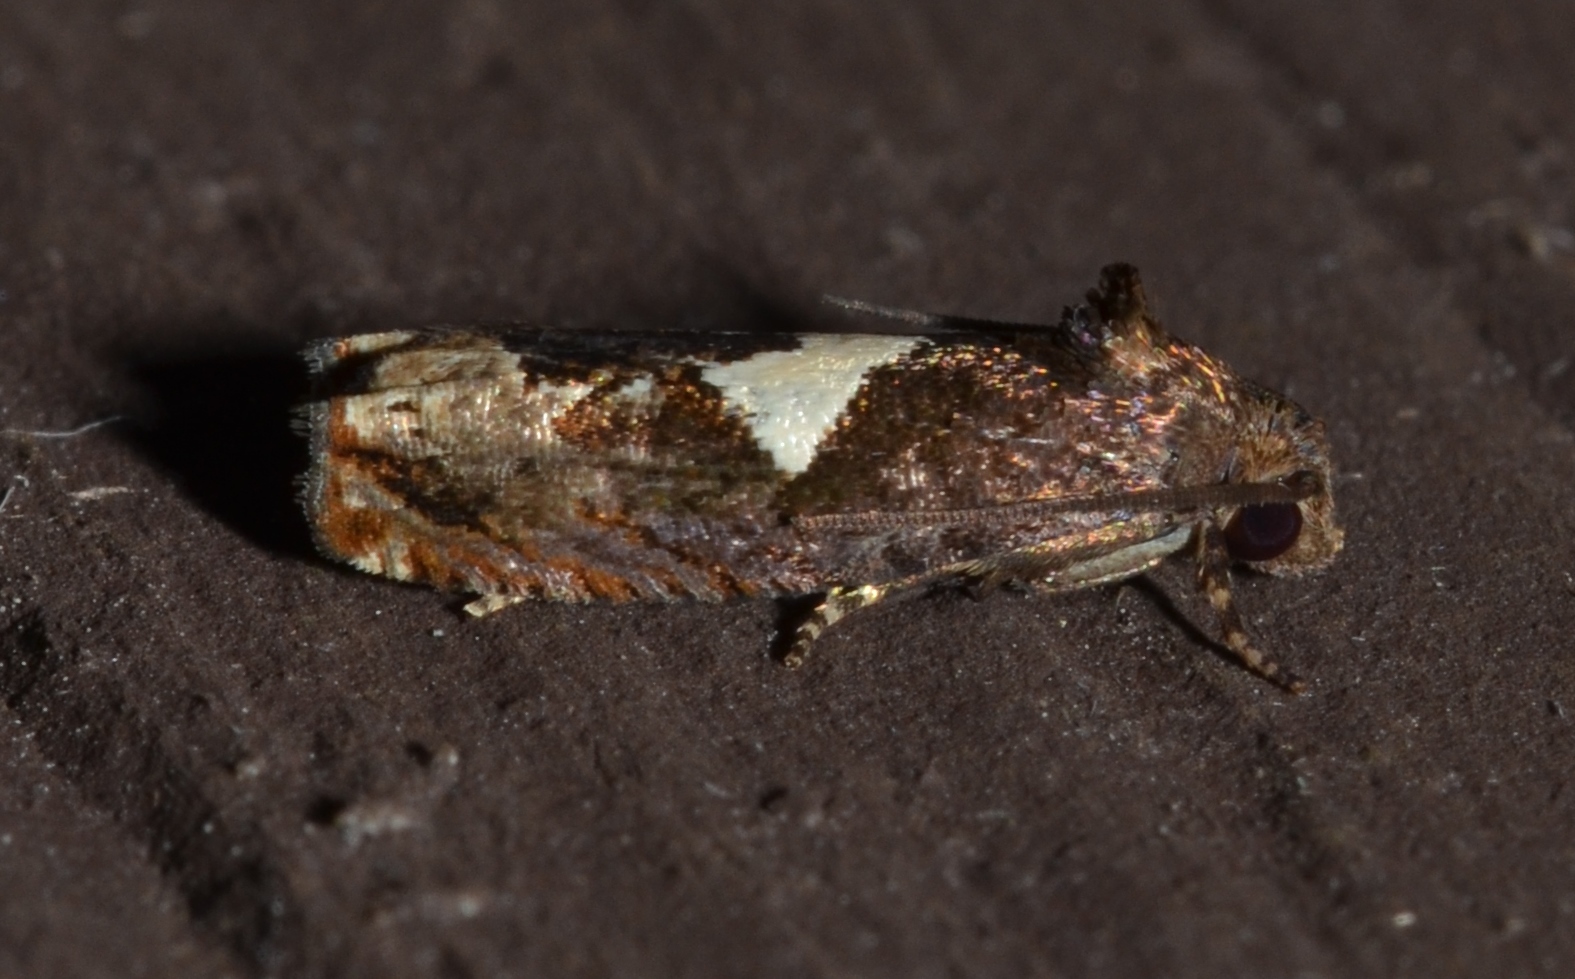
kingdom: Animalia
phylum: Arthropoda
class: Insecta
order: Lepidoptera
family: Tortricidae
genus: Epiblema
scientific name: Epiblema otiosana
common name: Bidens borer moth
